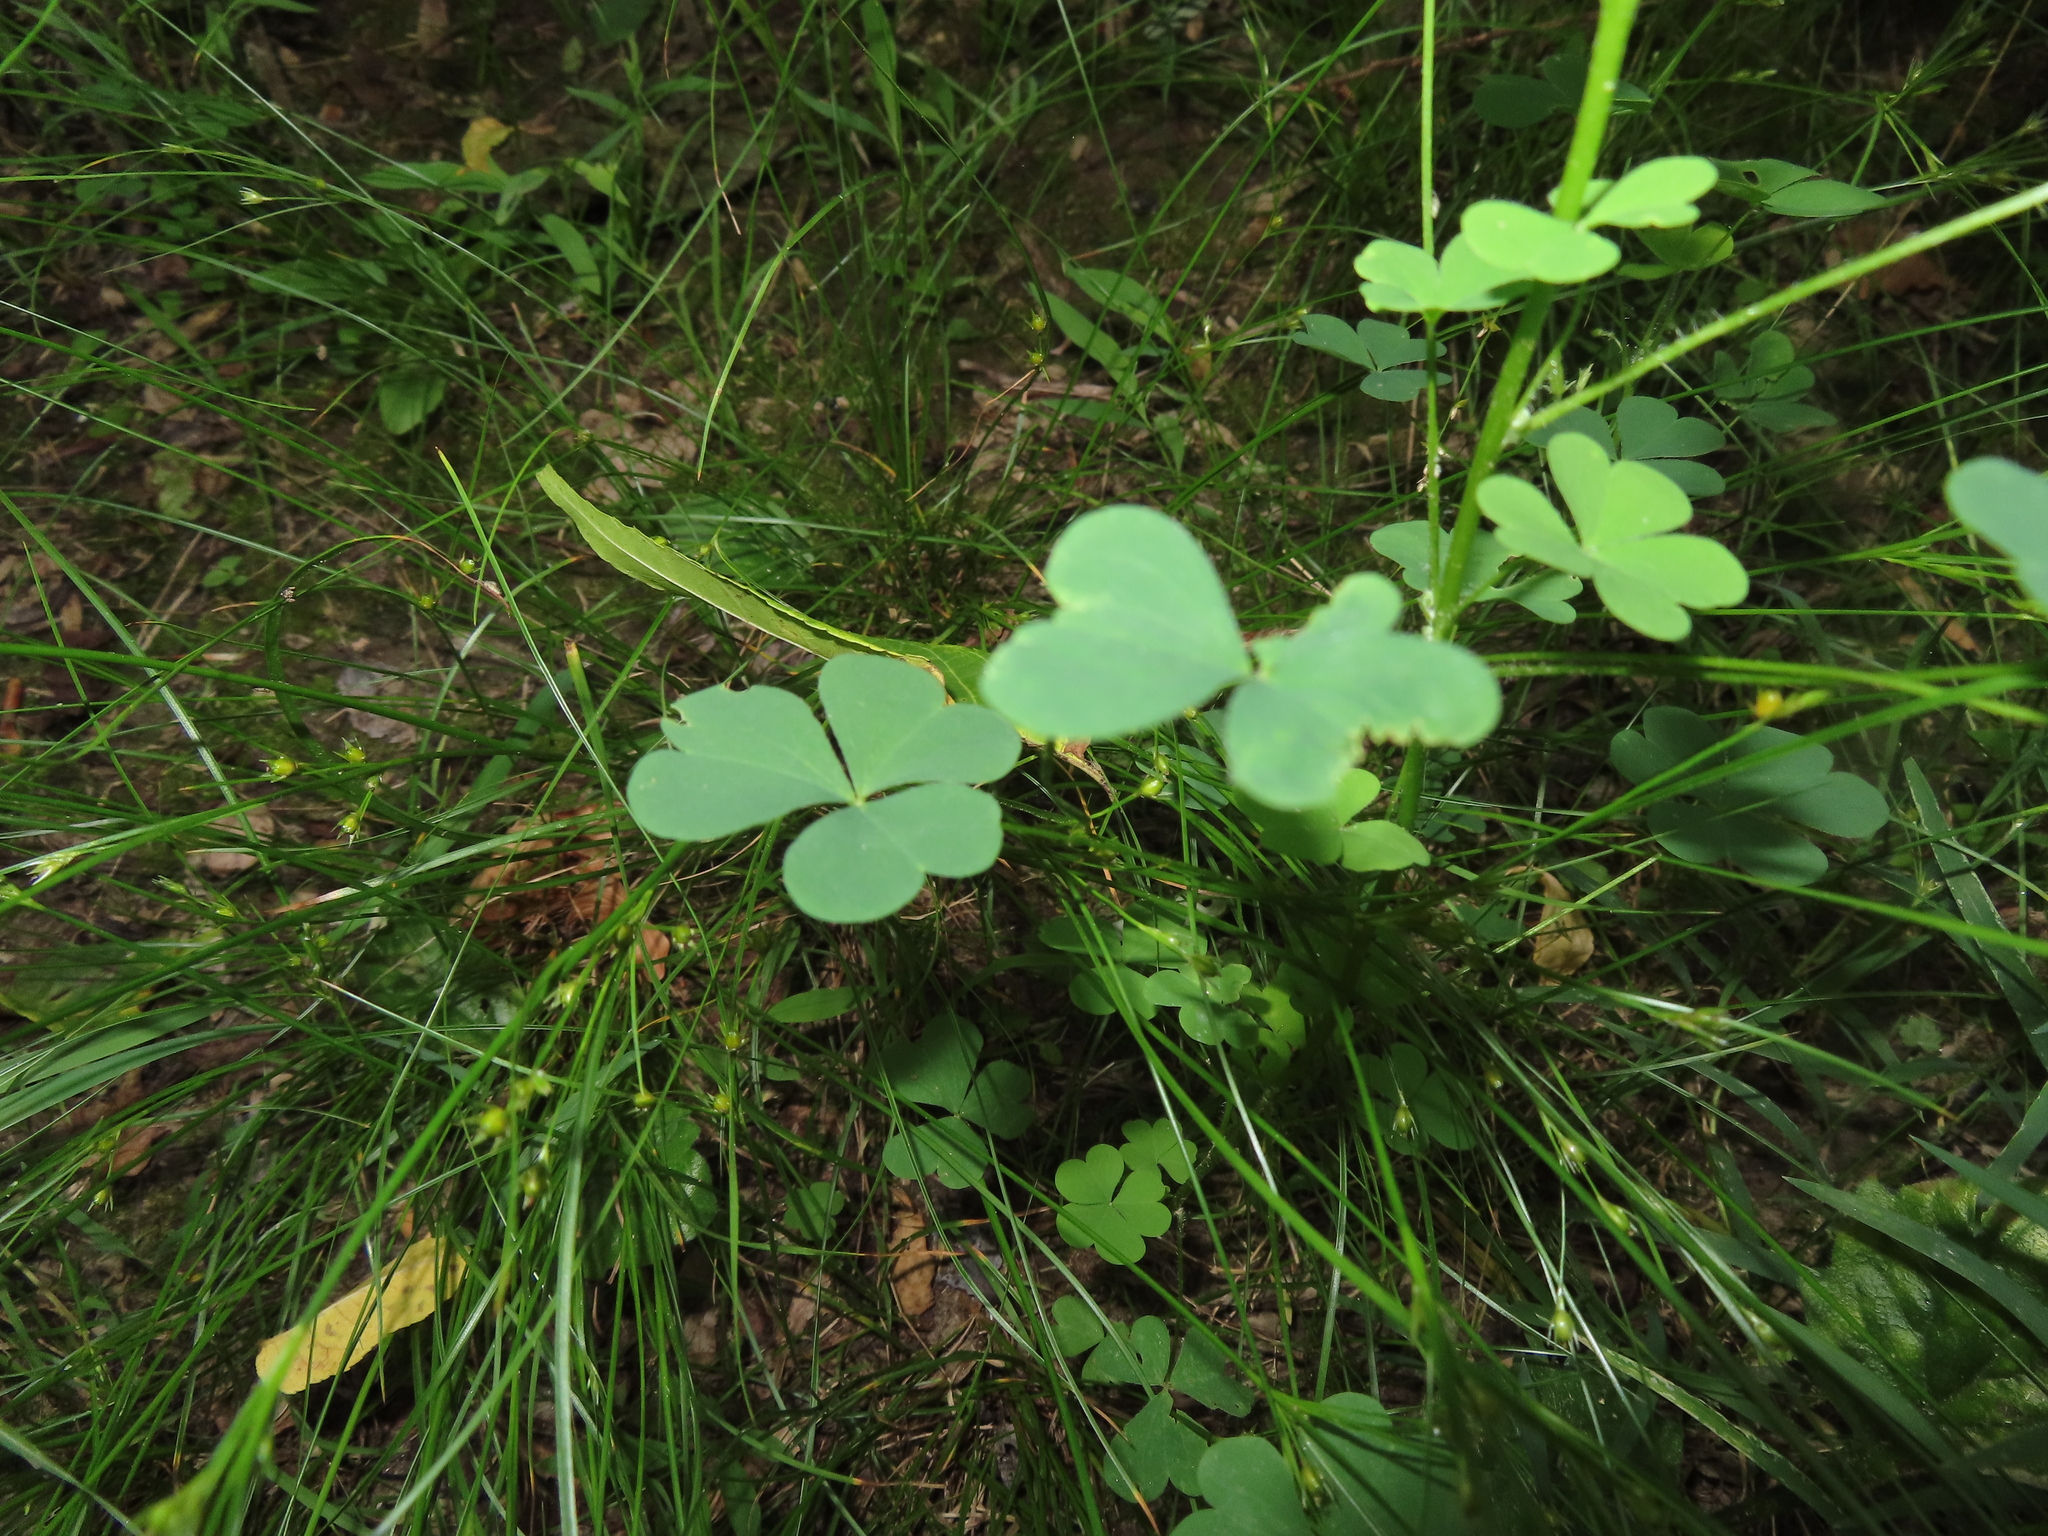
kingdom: Plantae
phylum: Tracheophyta
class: Magnoliopsida
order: Oxalidales
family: Oxalidaceae
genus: Oxalis
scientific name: Oxalis stricta
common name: Upright yellow-sorrel
